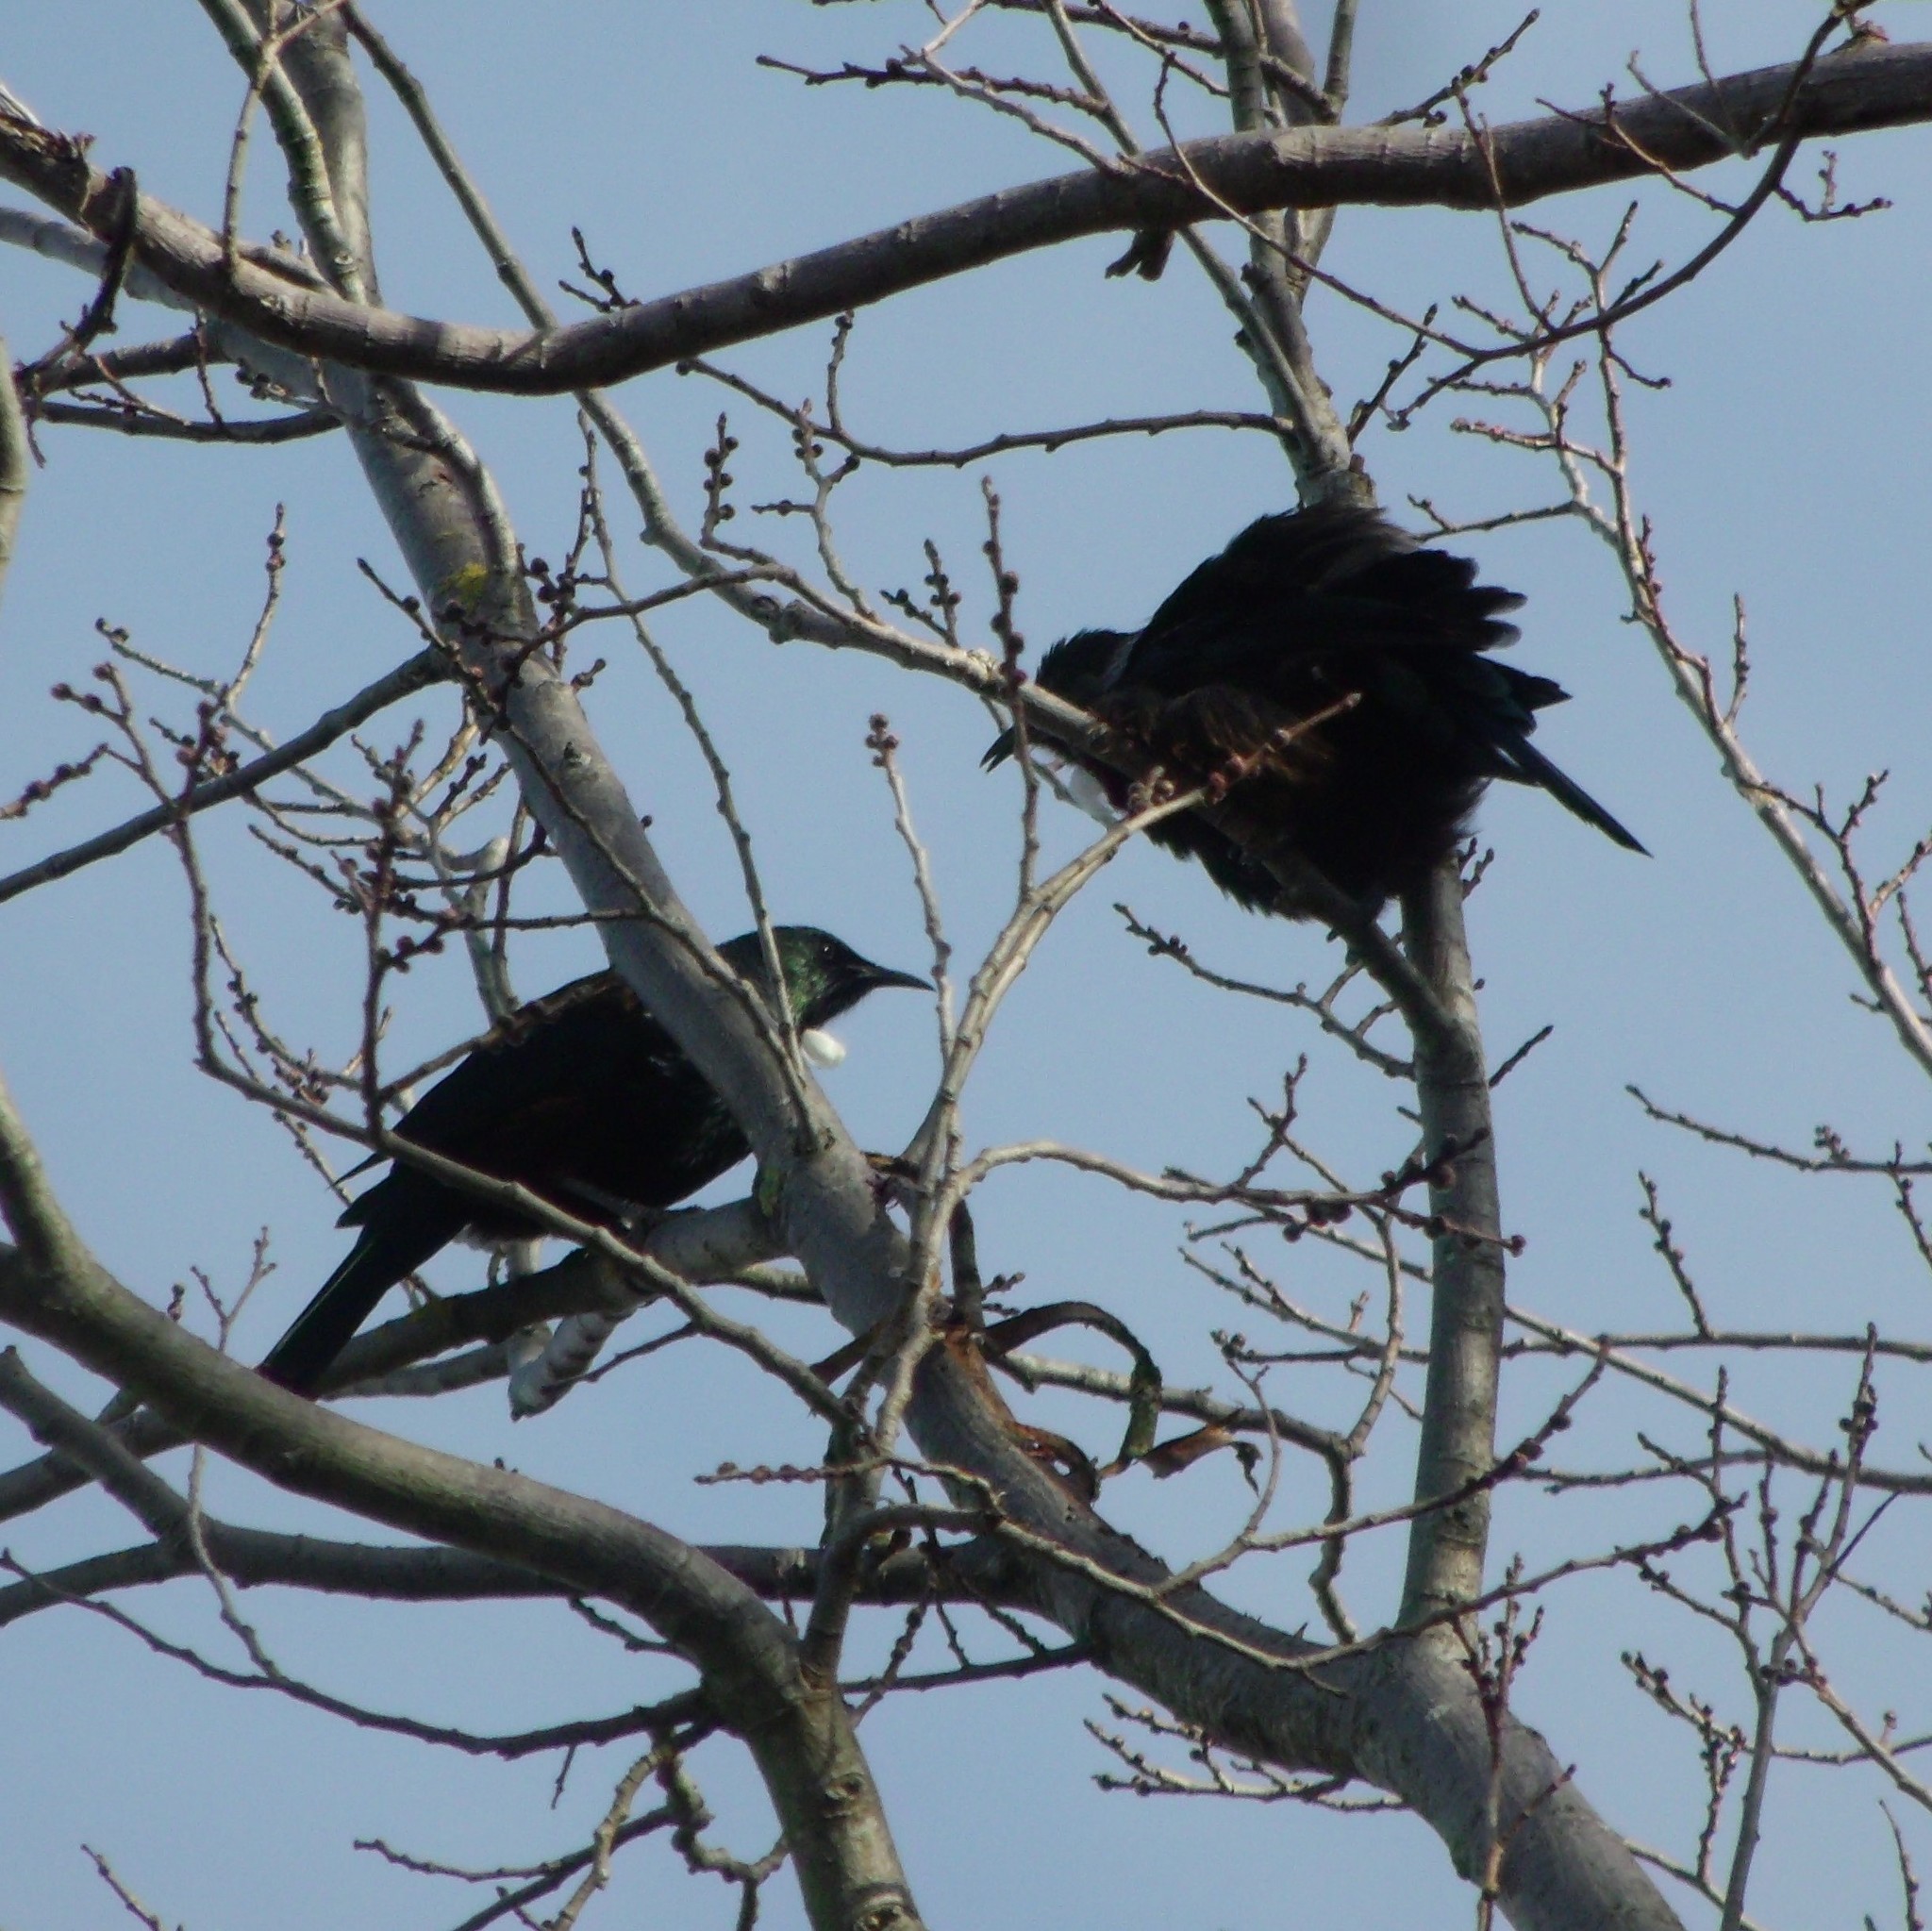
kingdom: Animalia
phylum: Chordata
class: Aves
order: Passeriformes
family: Meliphagidae
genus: Prosthemadera
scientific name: Prosthemadera novaeseelandiae
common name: Tui
